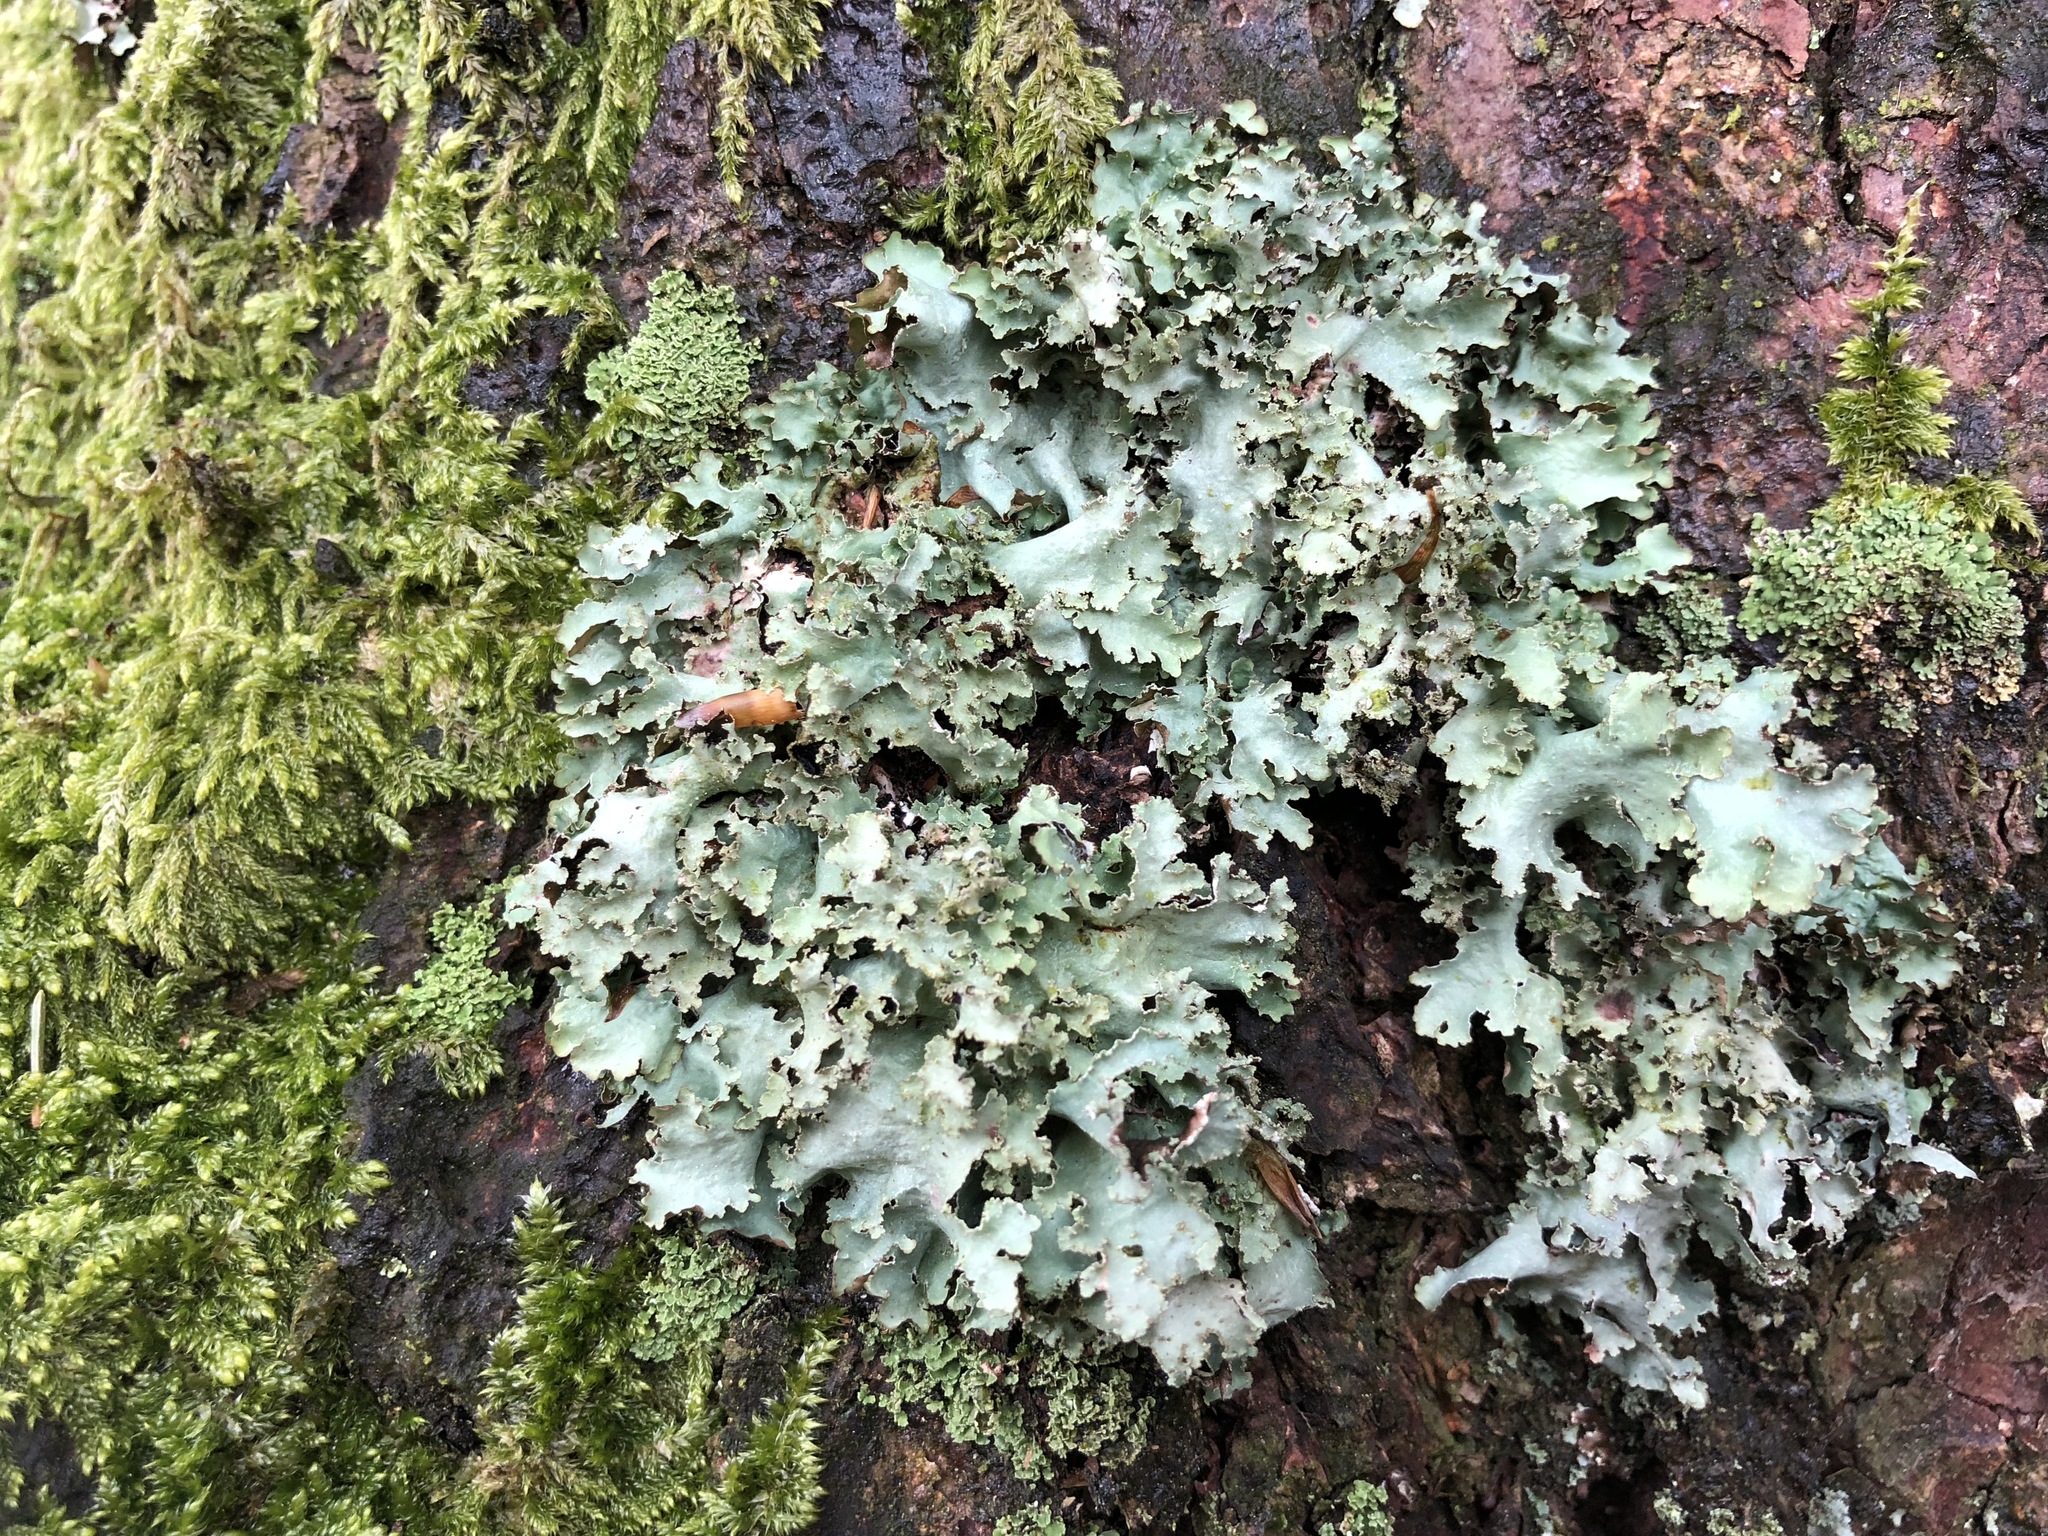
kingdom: Fungi
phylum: Ascomycota
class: Lecanoromycetes
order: Lecanorales
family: Parmeliaceae
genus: Platismatia
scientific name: Platismatia glauca
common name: Varied rag lichen
